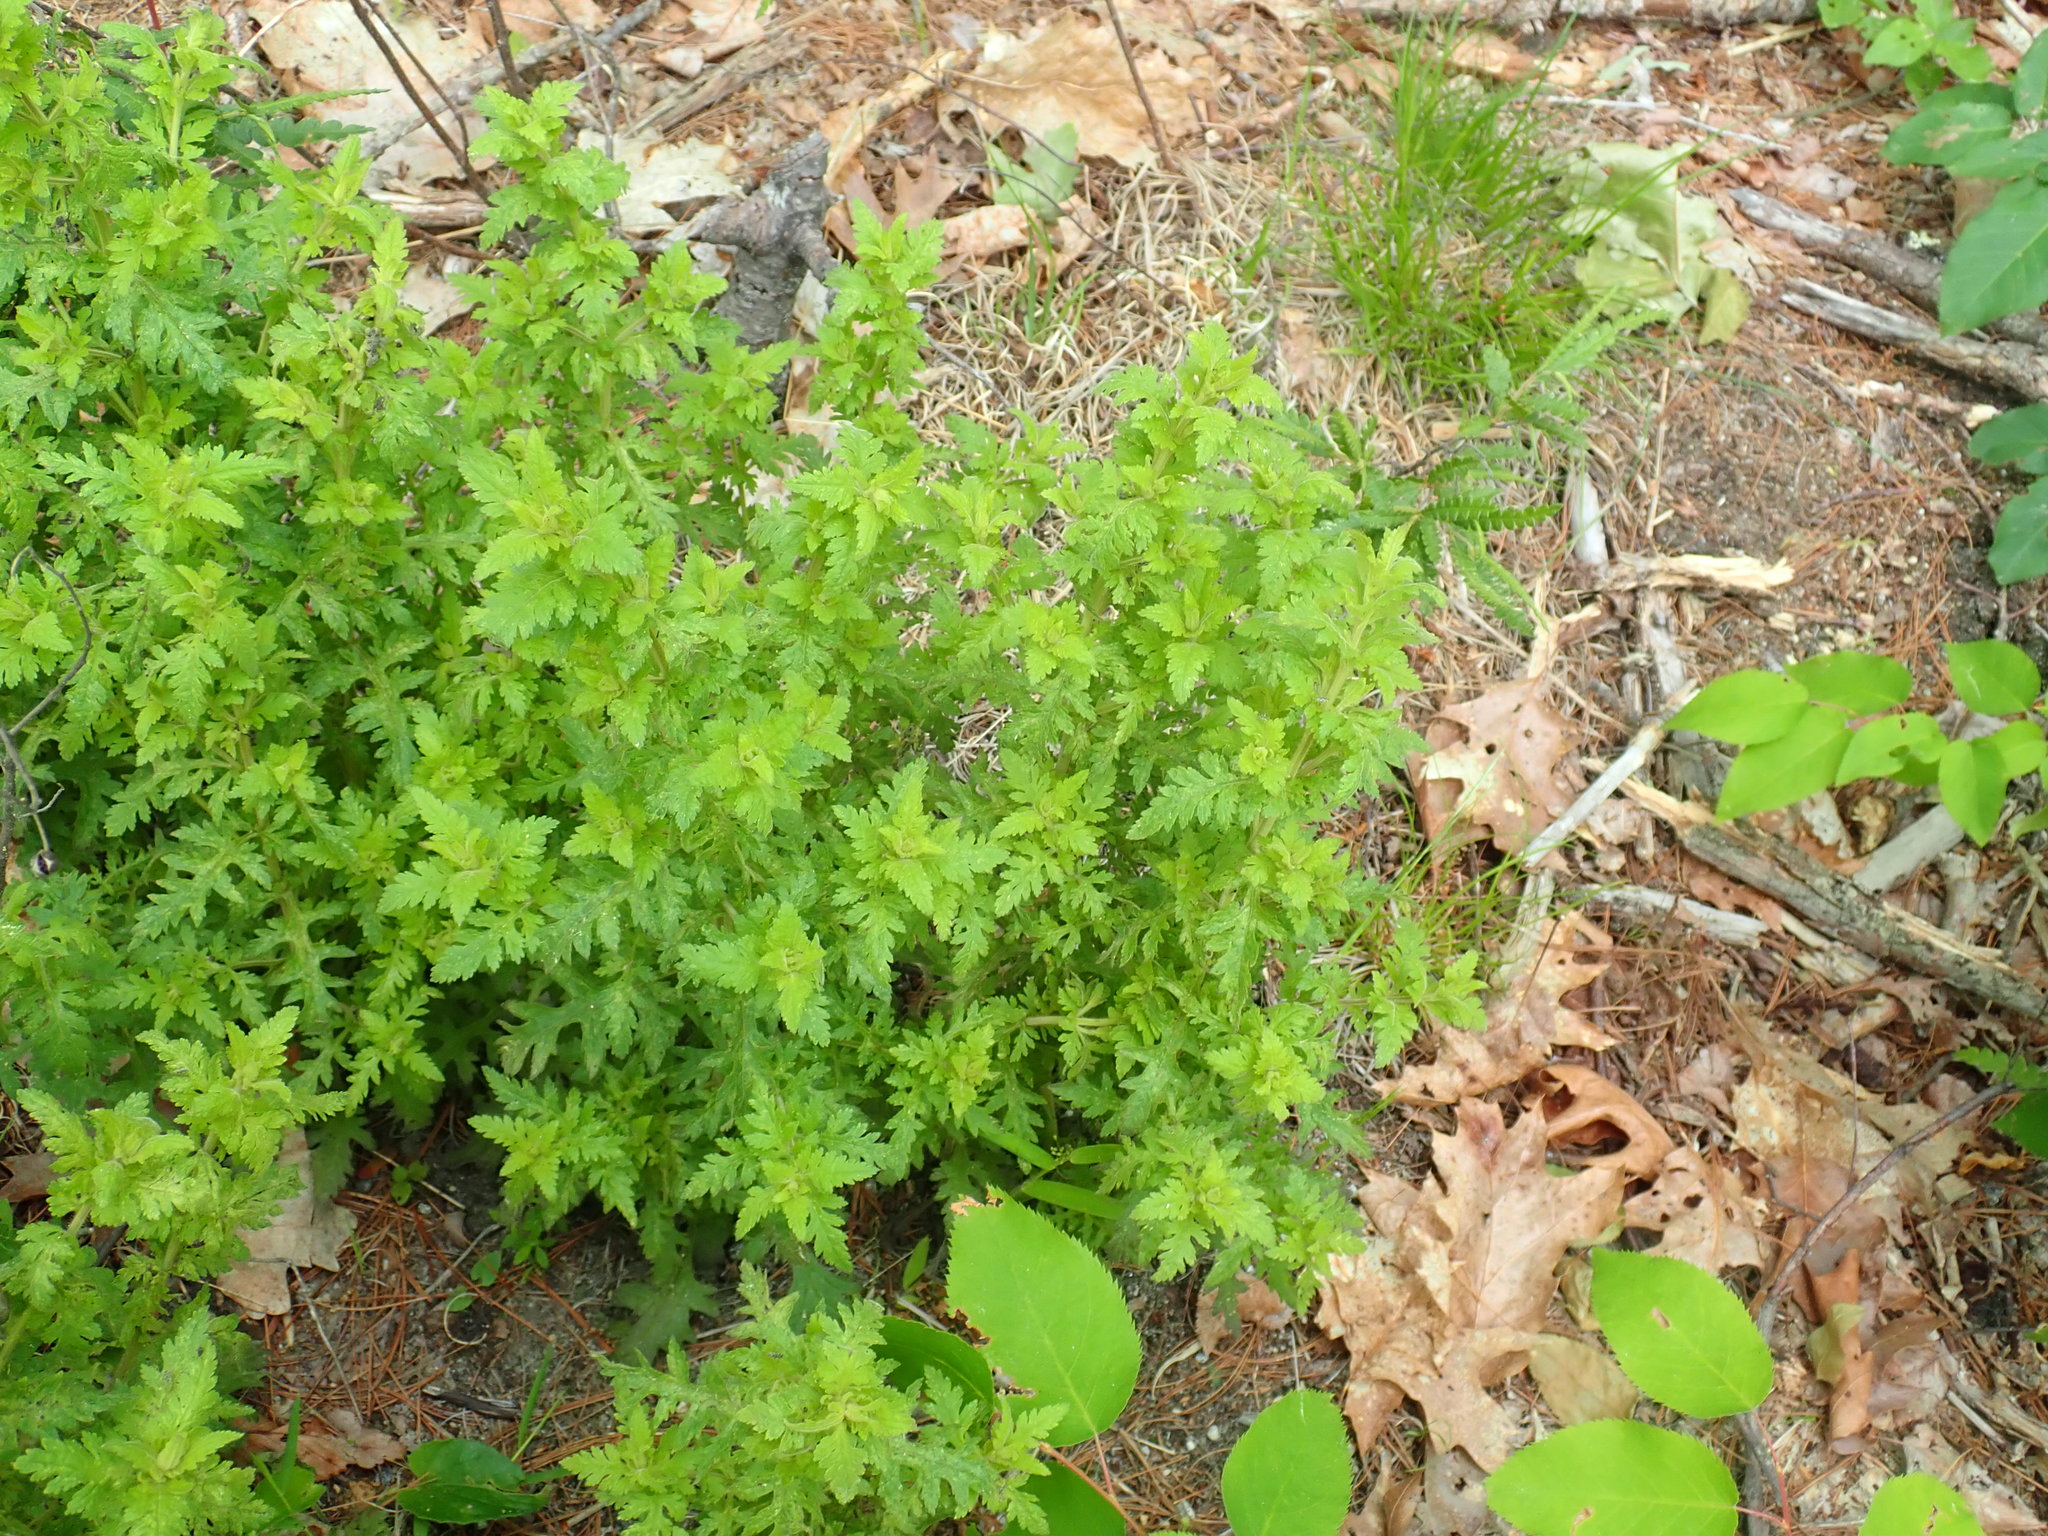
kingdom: Plantae
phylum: Tracheophyta
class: Magnoliopsida
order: Lamiales
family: Orobanchaceae
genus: Aureolaria
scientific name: Aureolaria pedicularia
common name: Annual false foxglove
